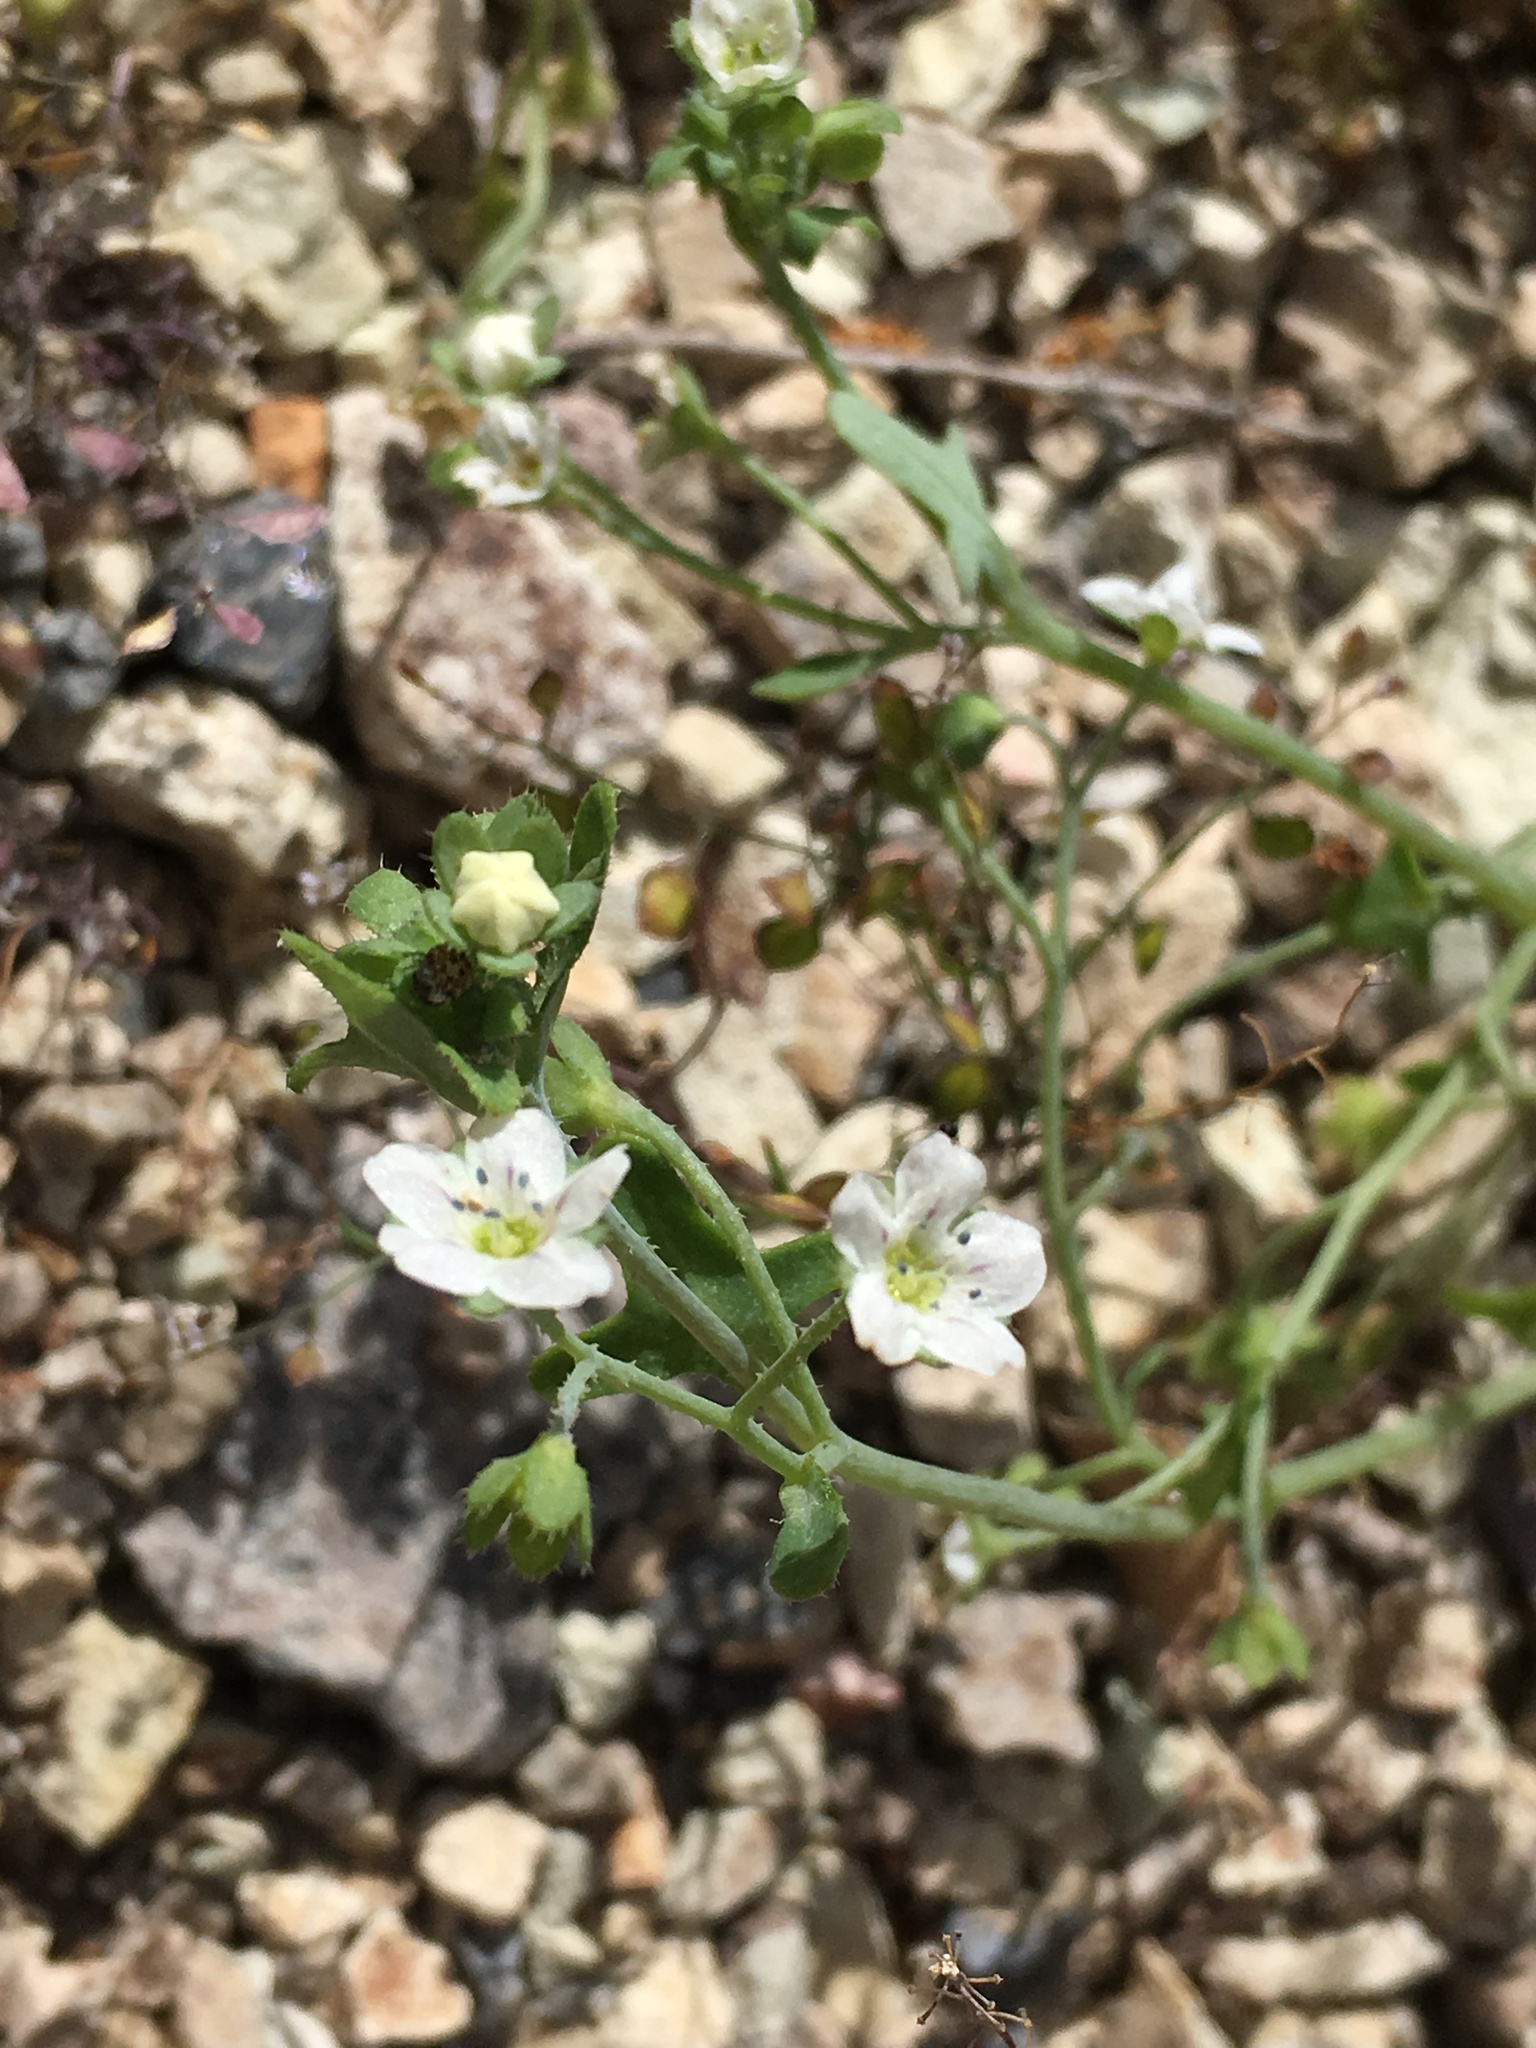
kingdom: Plantae
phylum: Tracheophyta
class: Magnoliopsida
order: Boraginales
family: Hydrophyllaceae
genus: Pholistoma
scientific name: Pholistoma membranaceum
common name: White fiesta-flower
